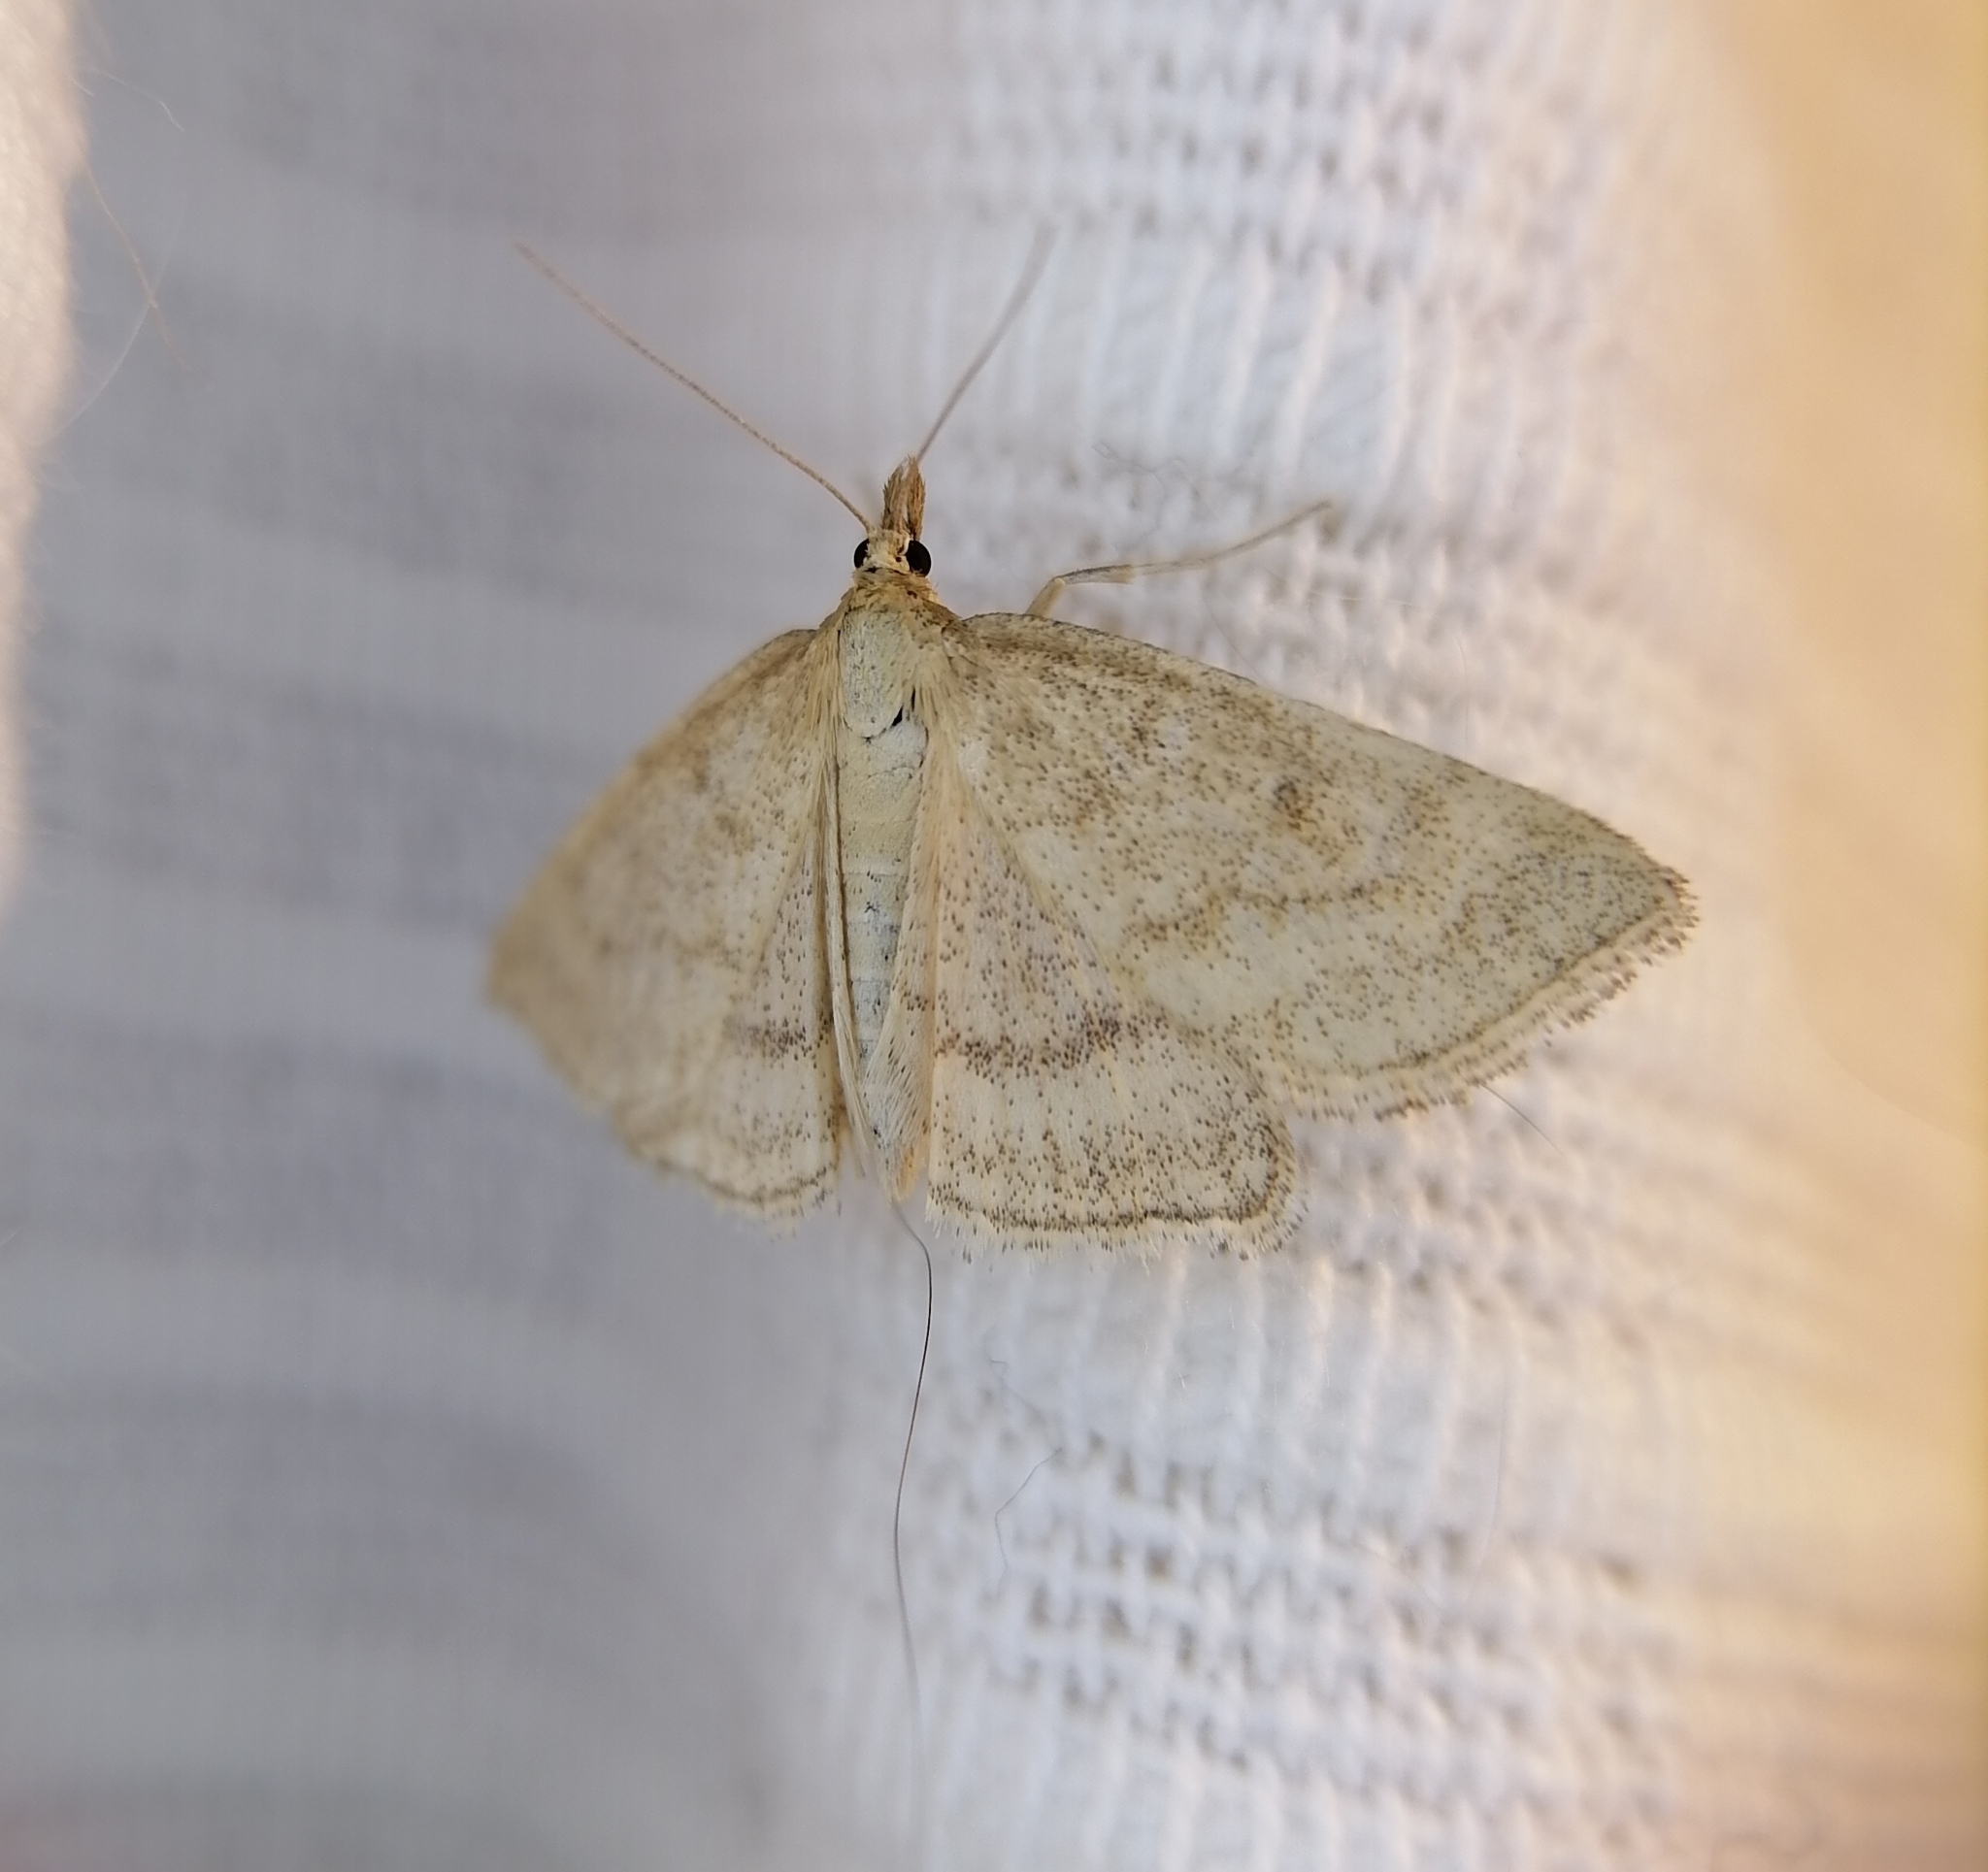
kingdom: Animalia
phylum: Arthropoda
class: Insecta
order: Lepidoptera
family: Crambidae
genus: Psammotis
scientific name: Psammotis viminalis
